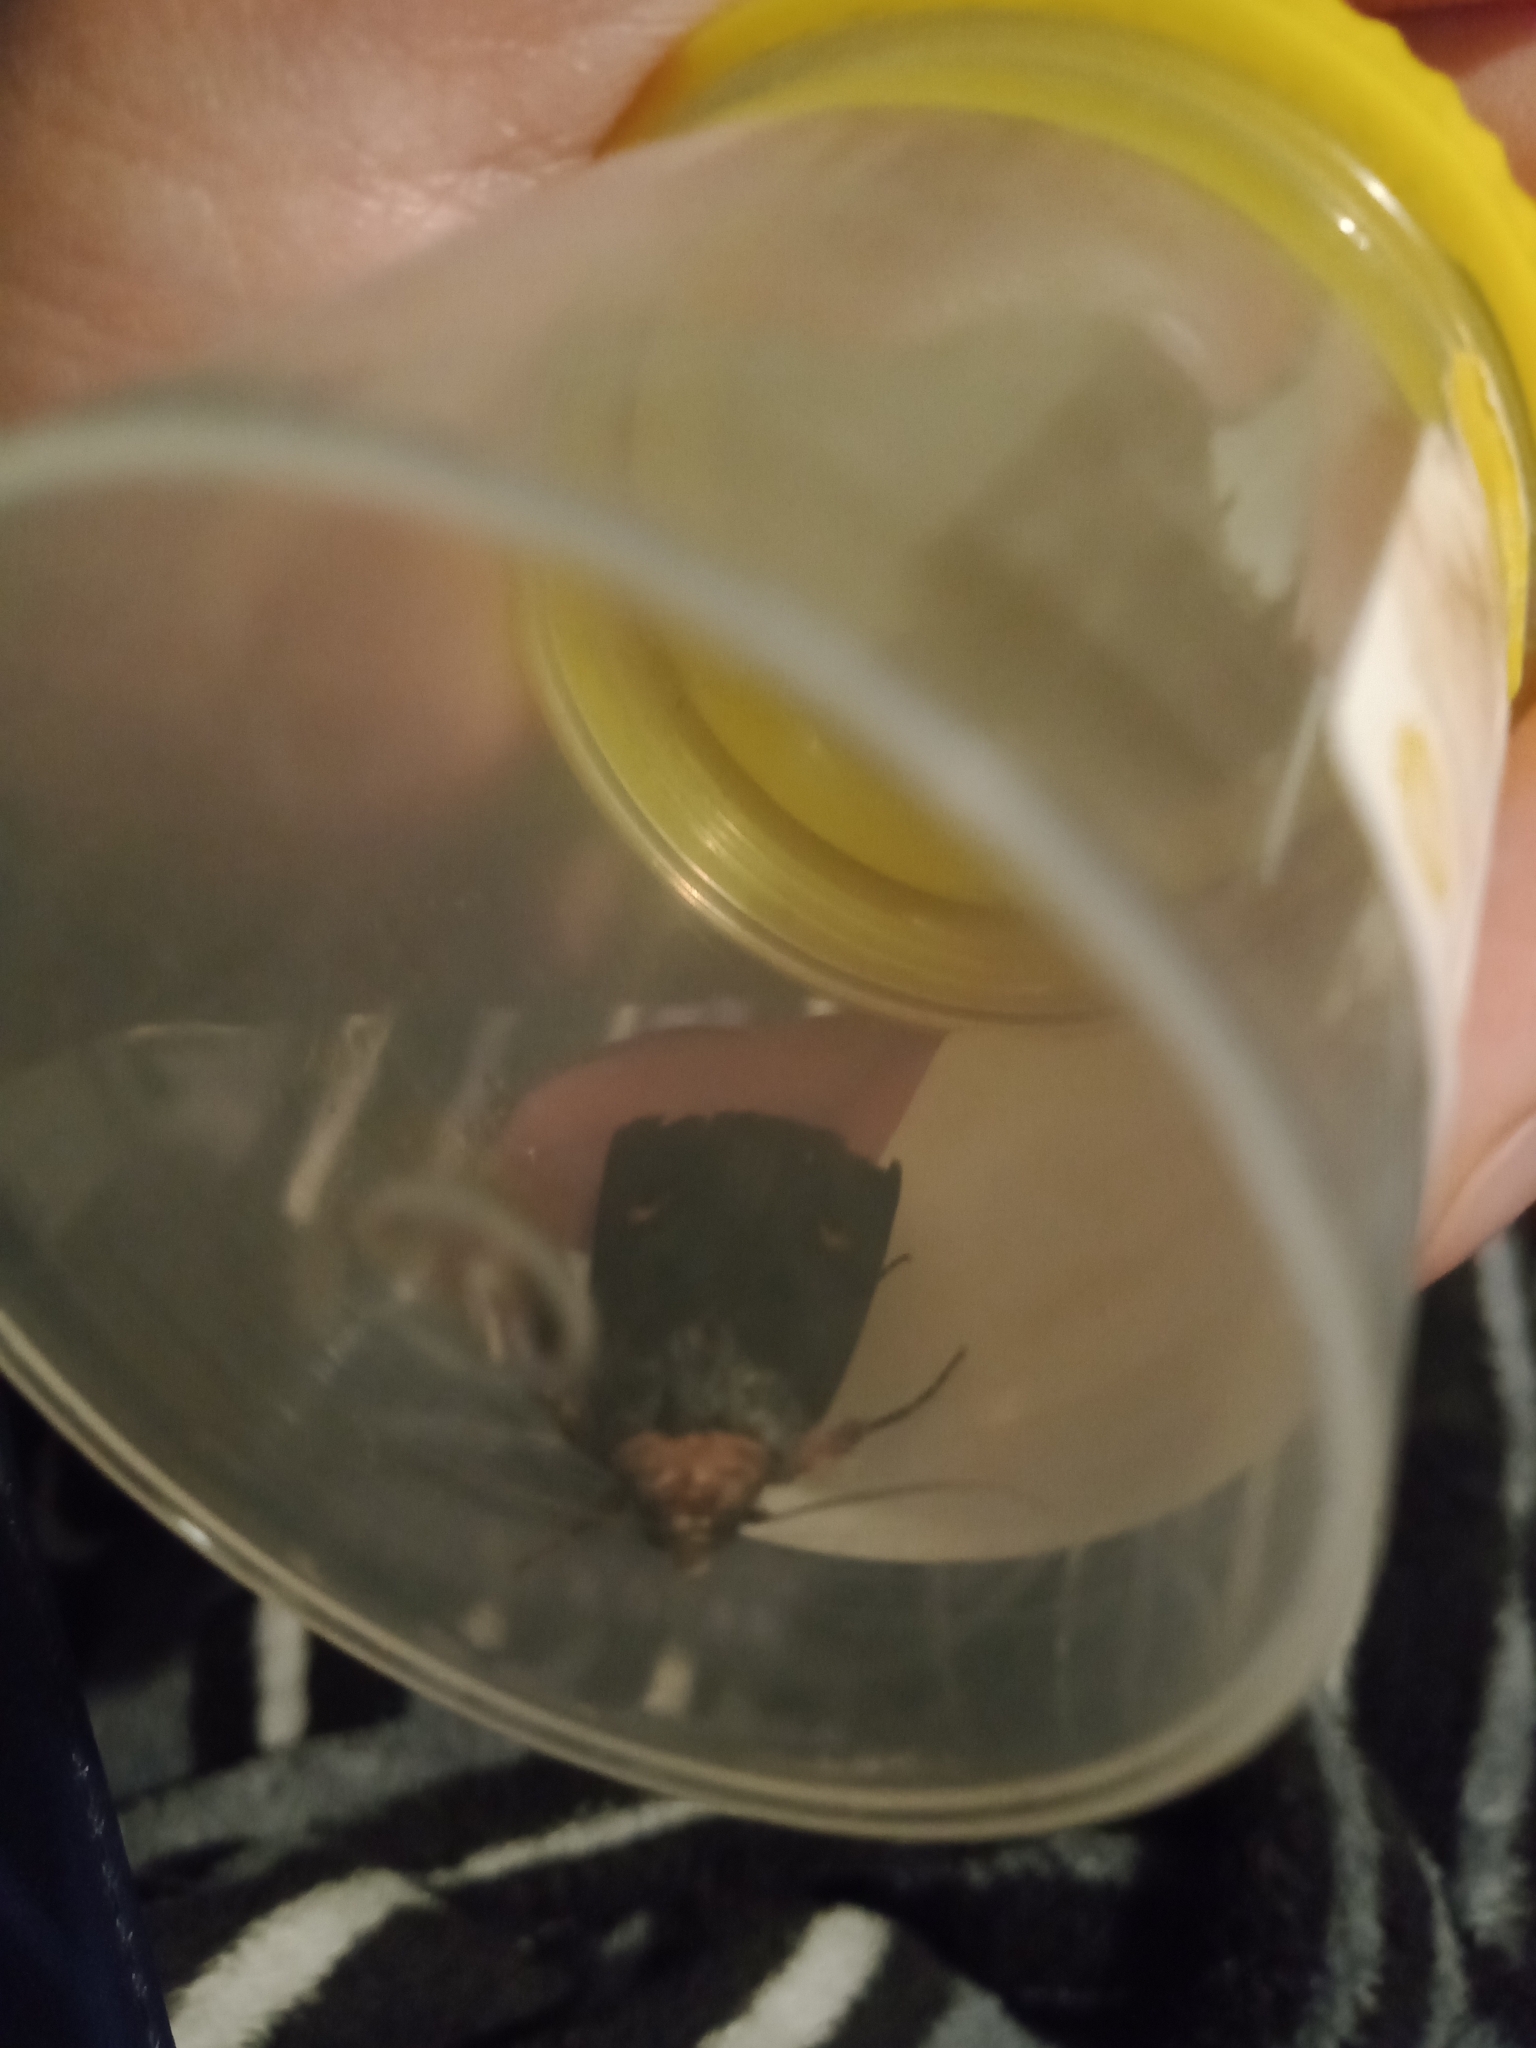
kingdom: Animalia
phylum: Arthropoda
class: Insecta
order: Lepidoptera
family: Noctuidae
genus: Proteuxoa
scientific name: Proteuxoa testaceicollis
